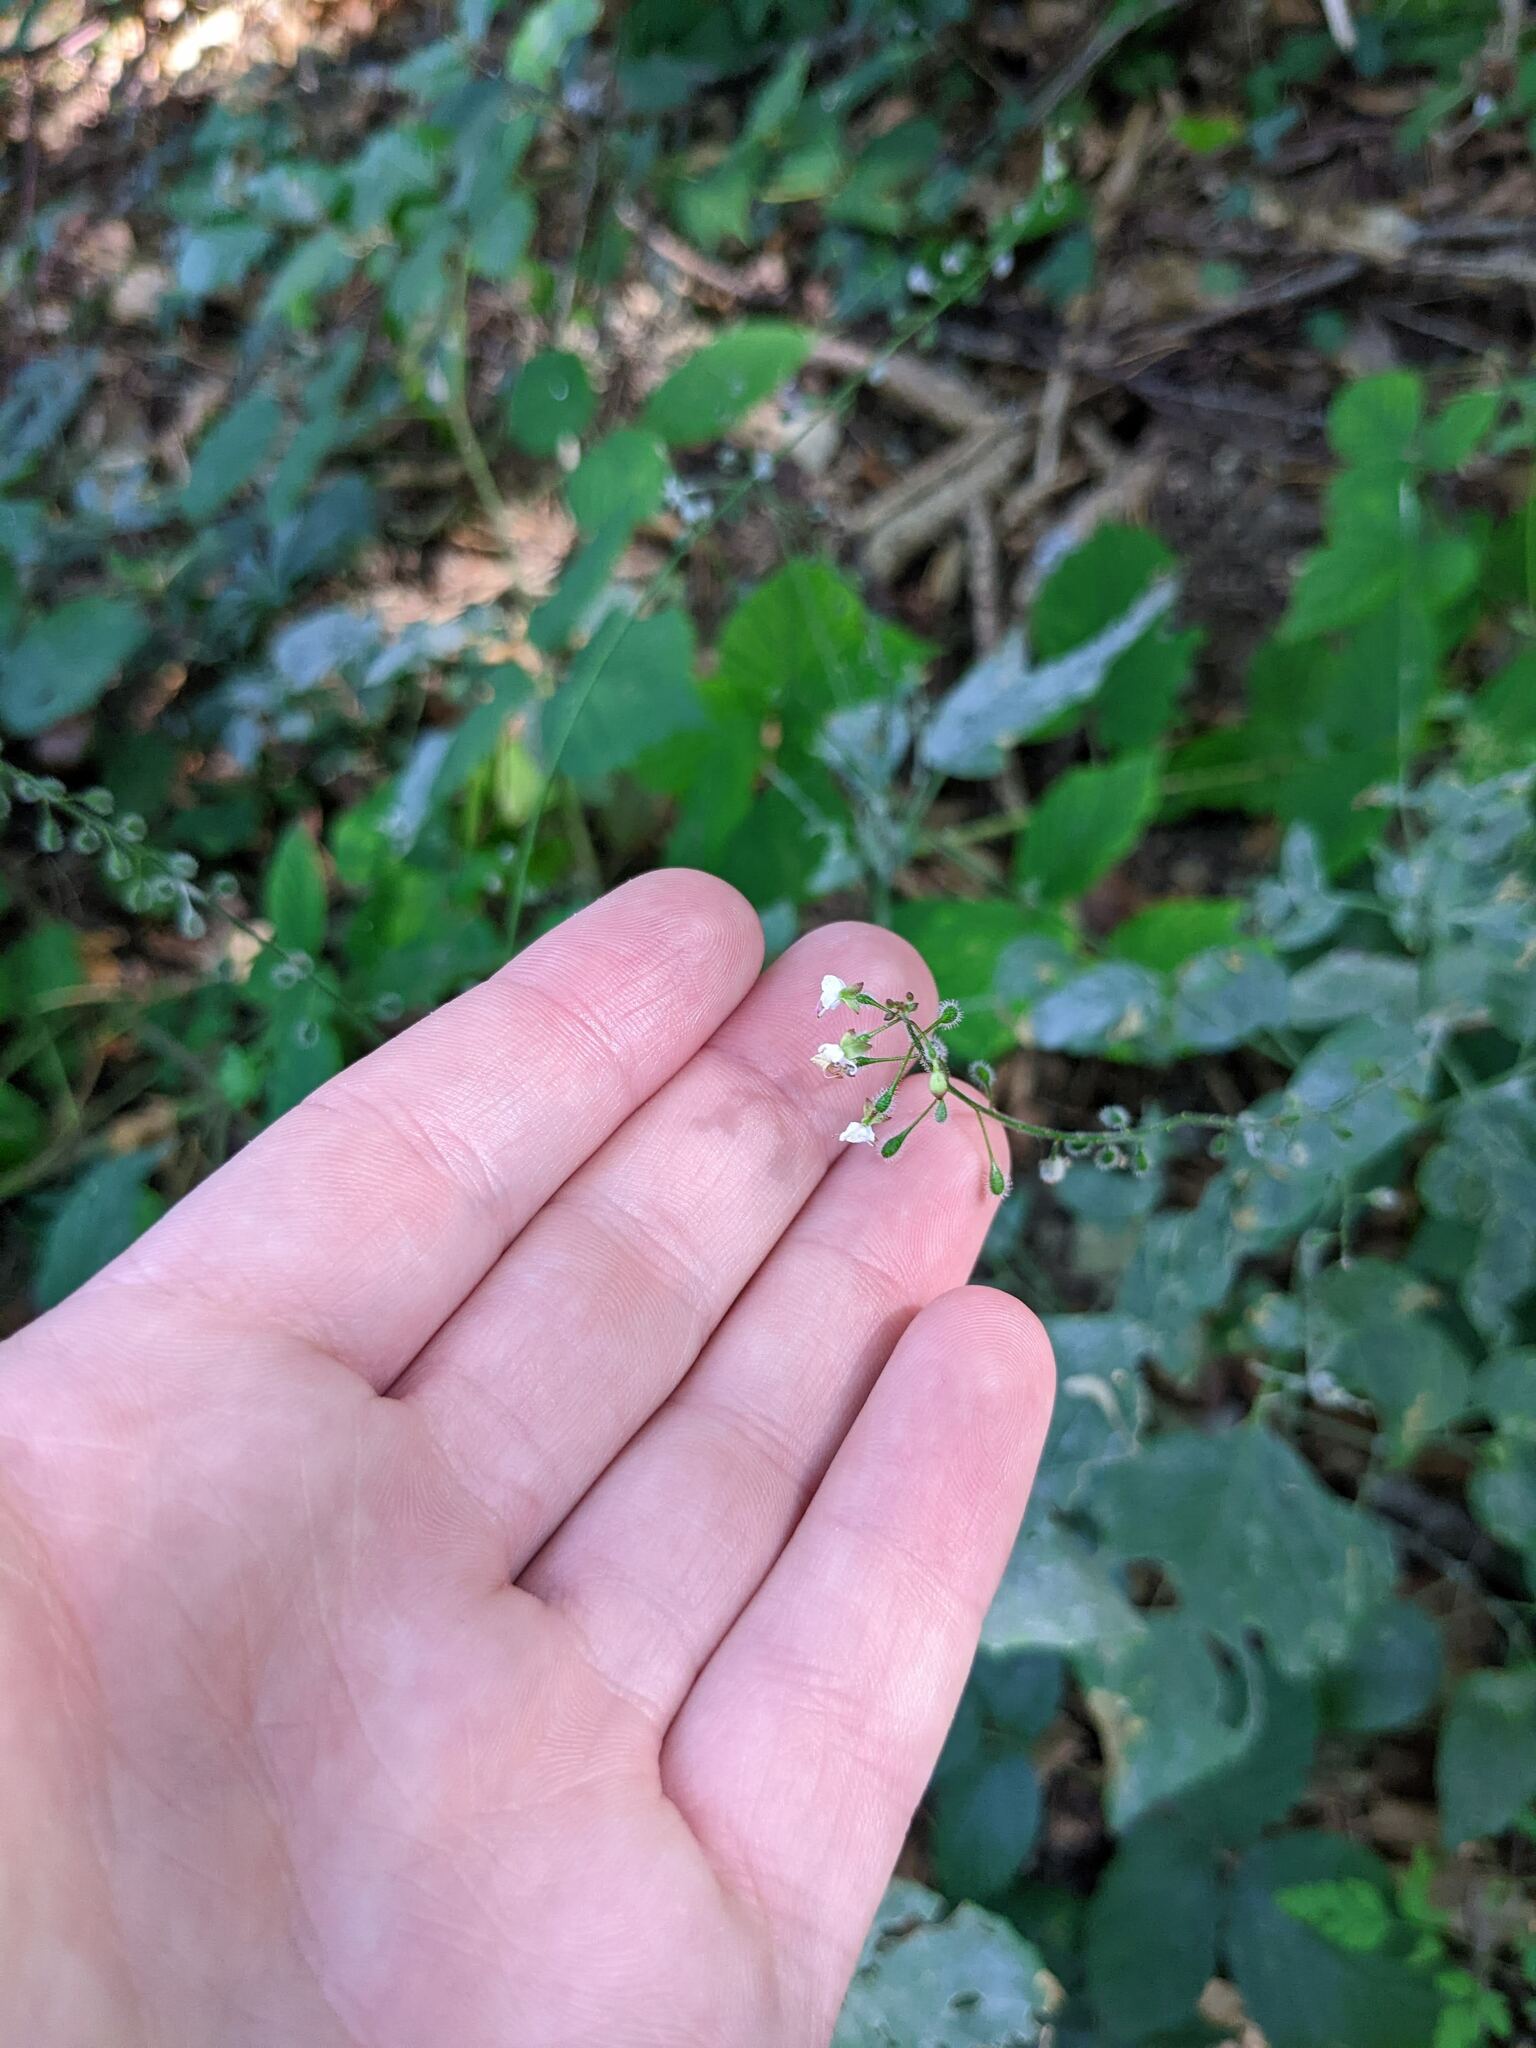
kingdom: Plantae
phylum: Tracheophyta
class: Magnoliopsida
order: Myrtales
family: Onagraceae
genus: Circaea
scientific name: Circaea lutetiana
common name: Enchanter's-nightshade
